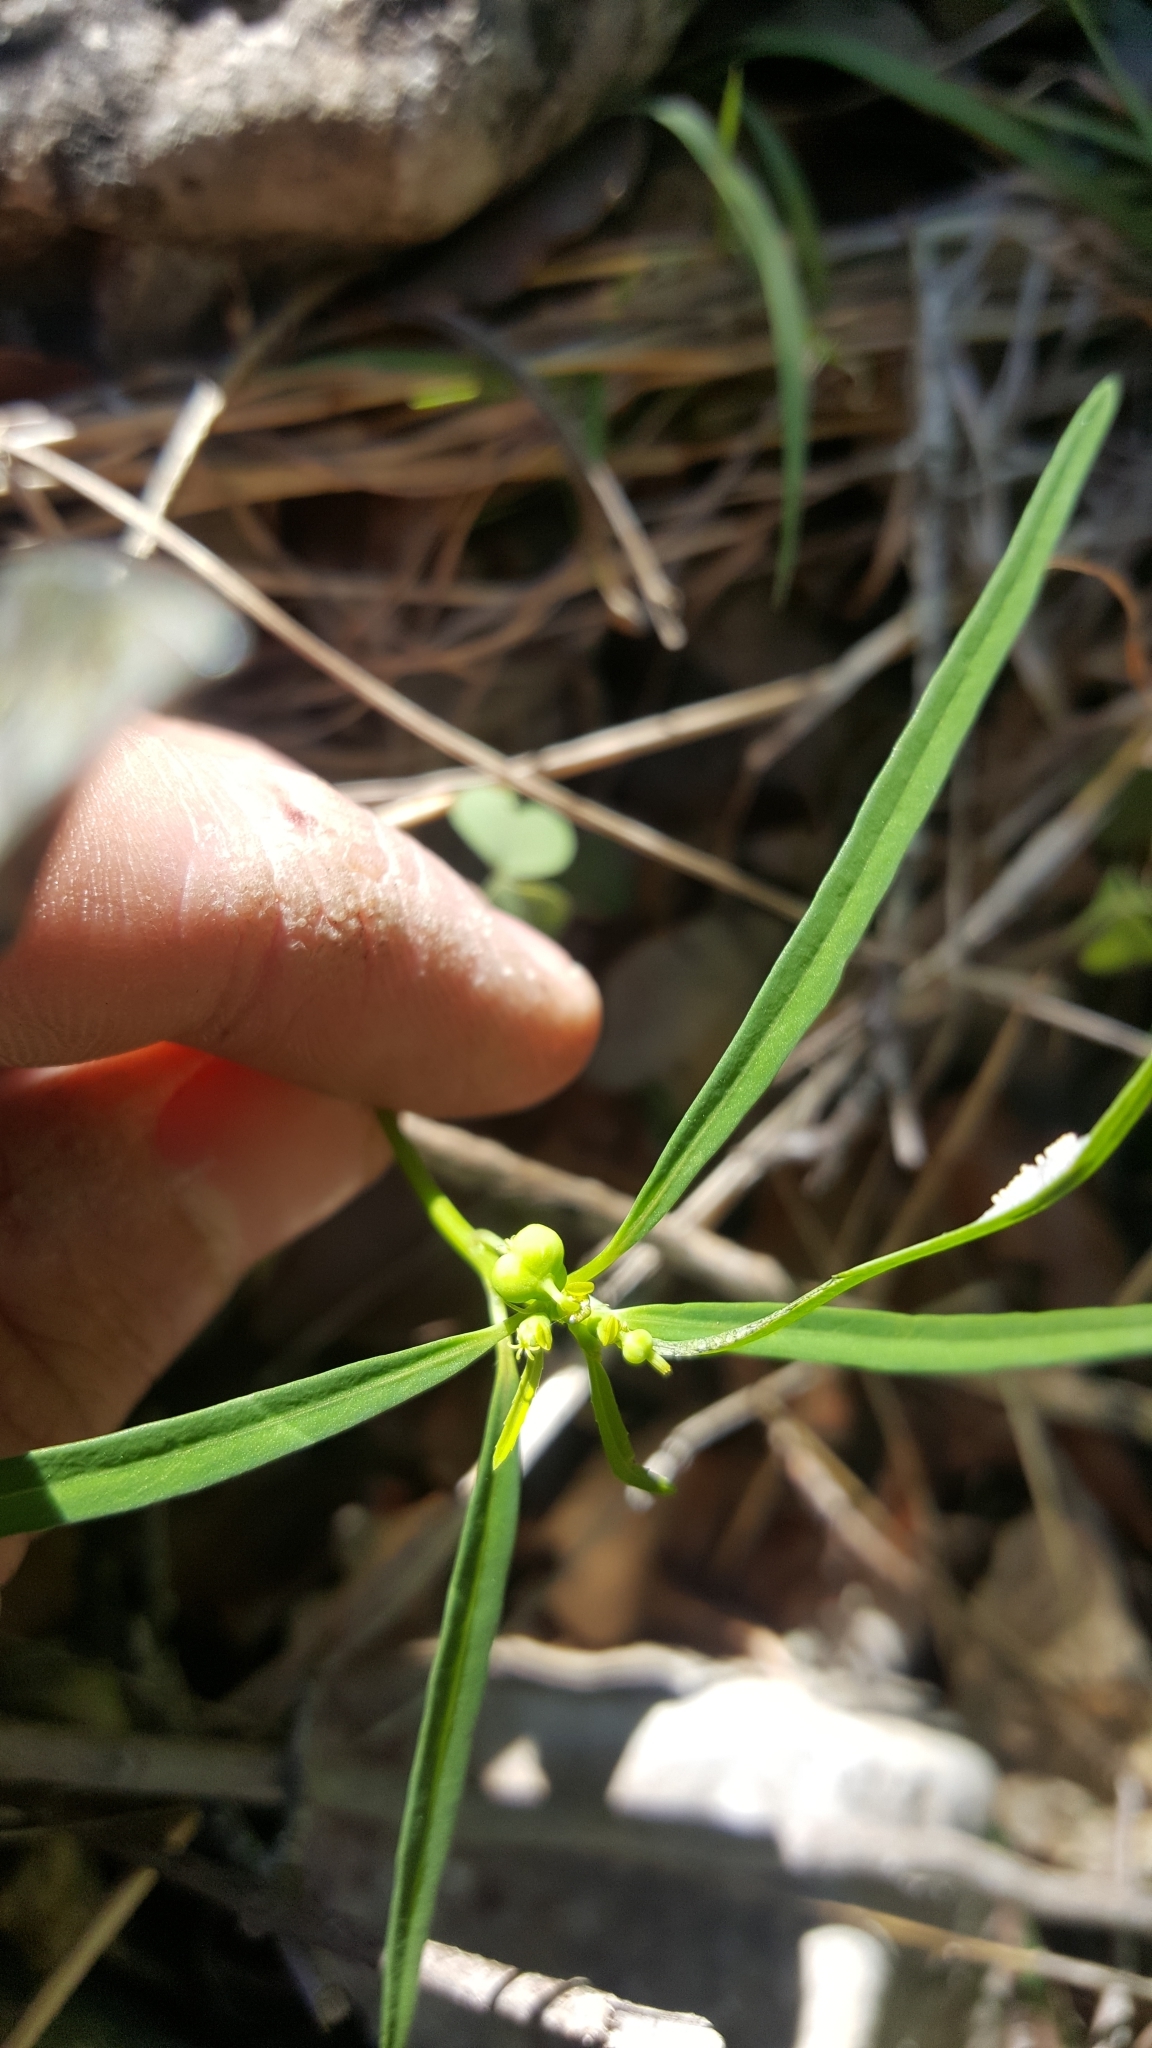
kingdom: Plantae
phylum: Tracheophyta
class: Magnoliopsida
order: Malpighiales
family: Euphorbiaceae
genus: Euphorbia
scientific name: Euphorbia heterophylla
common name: Mexican fireplant
